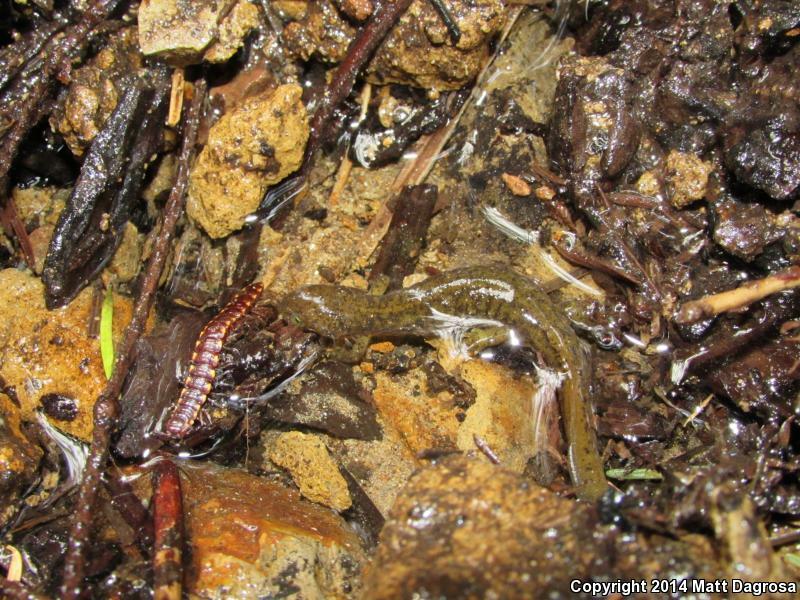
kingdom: Animalia
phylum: Chordata
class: Amphibia
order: Caudata
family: Rhyacotritonidae
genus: Rhyacotriton
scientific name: Rhyacotriton variegatus
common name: Southern torrent salamander
